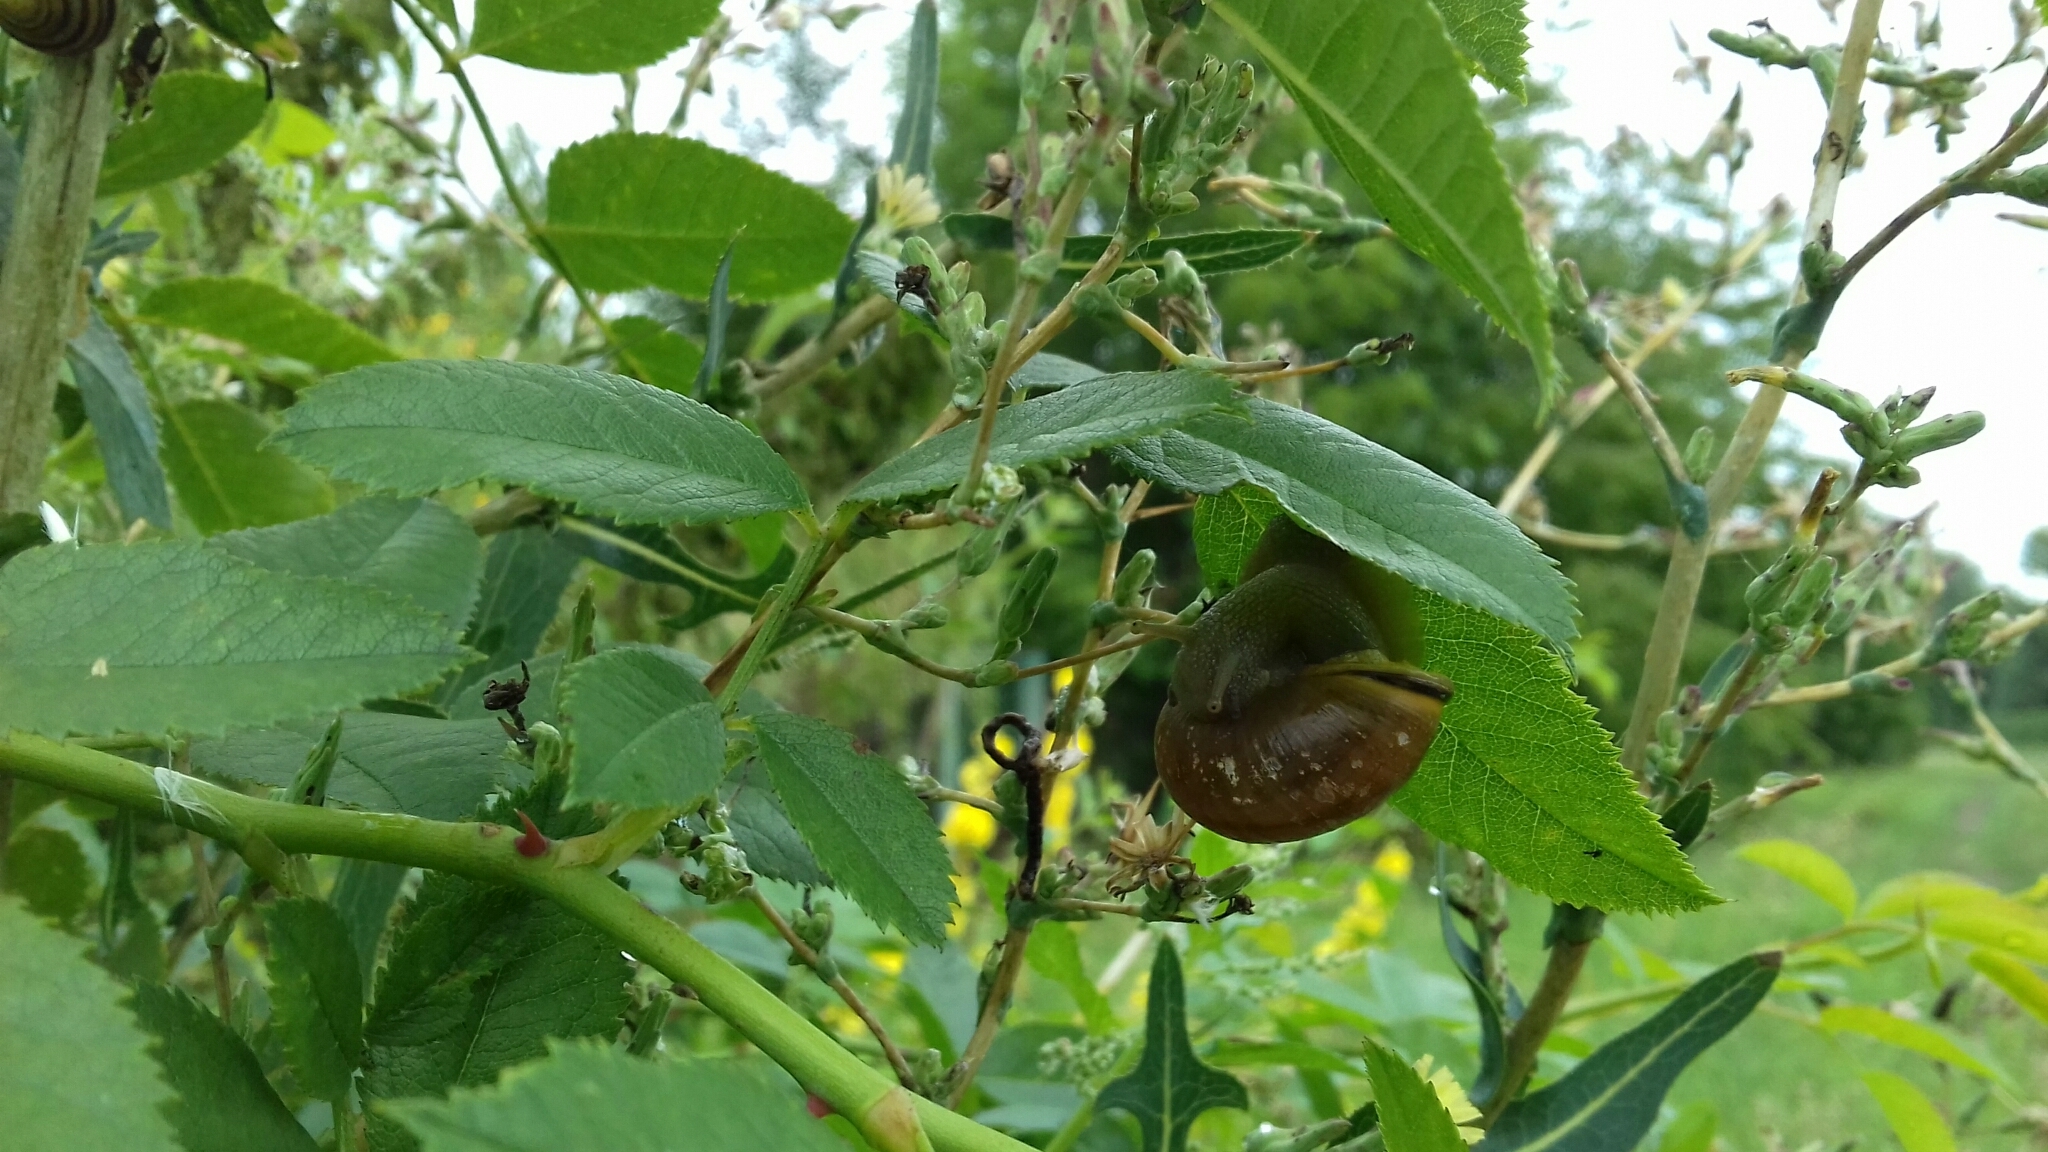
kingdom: Animalia
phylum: Mollusca
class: Gastropoda
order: Stylommatophora
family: Helicidae
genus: Cepaea
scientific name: Cepaea nemoralis
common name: Grovesnail
